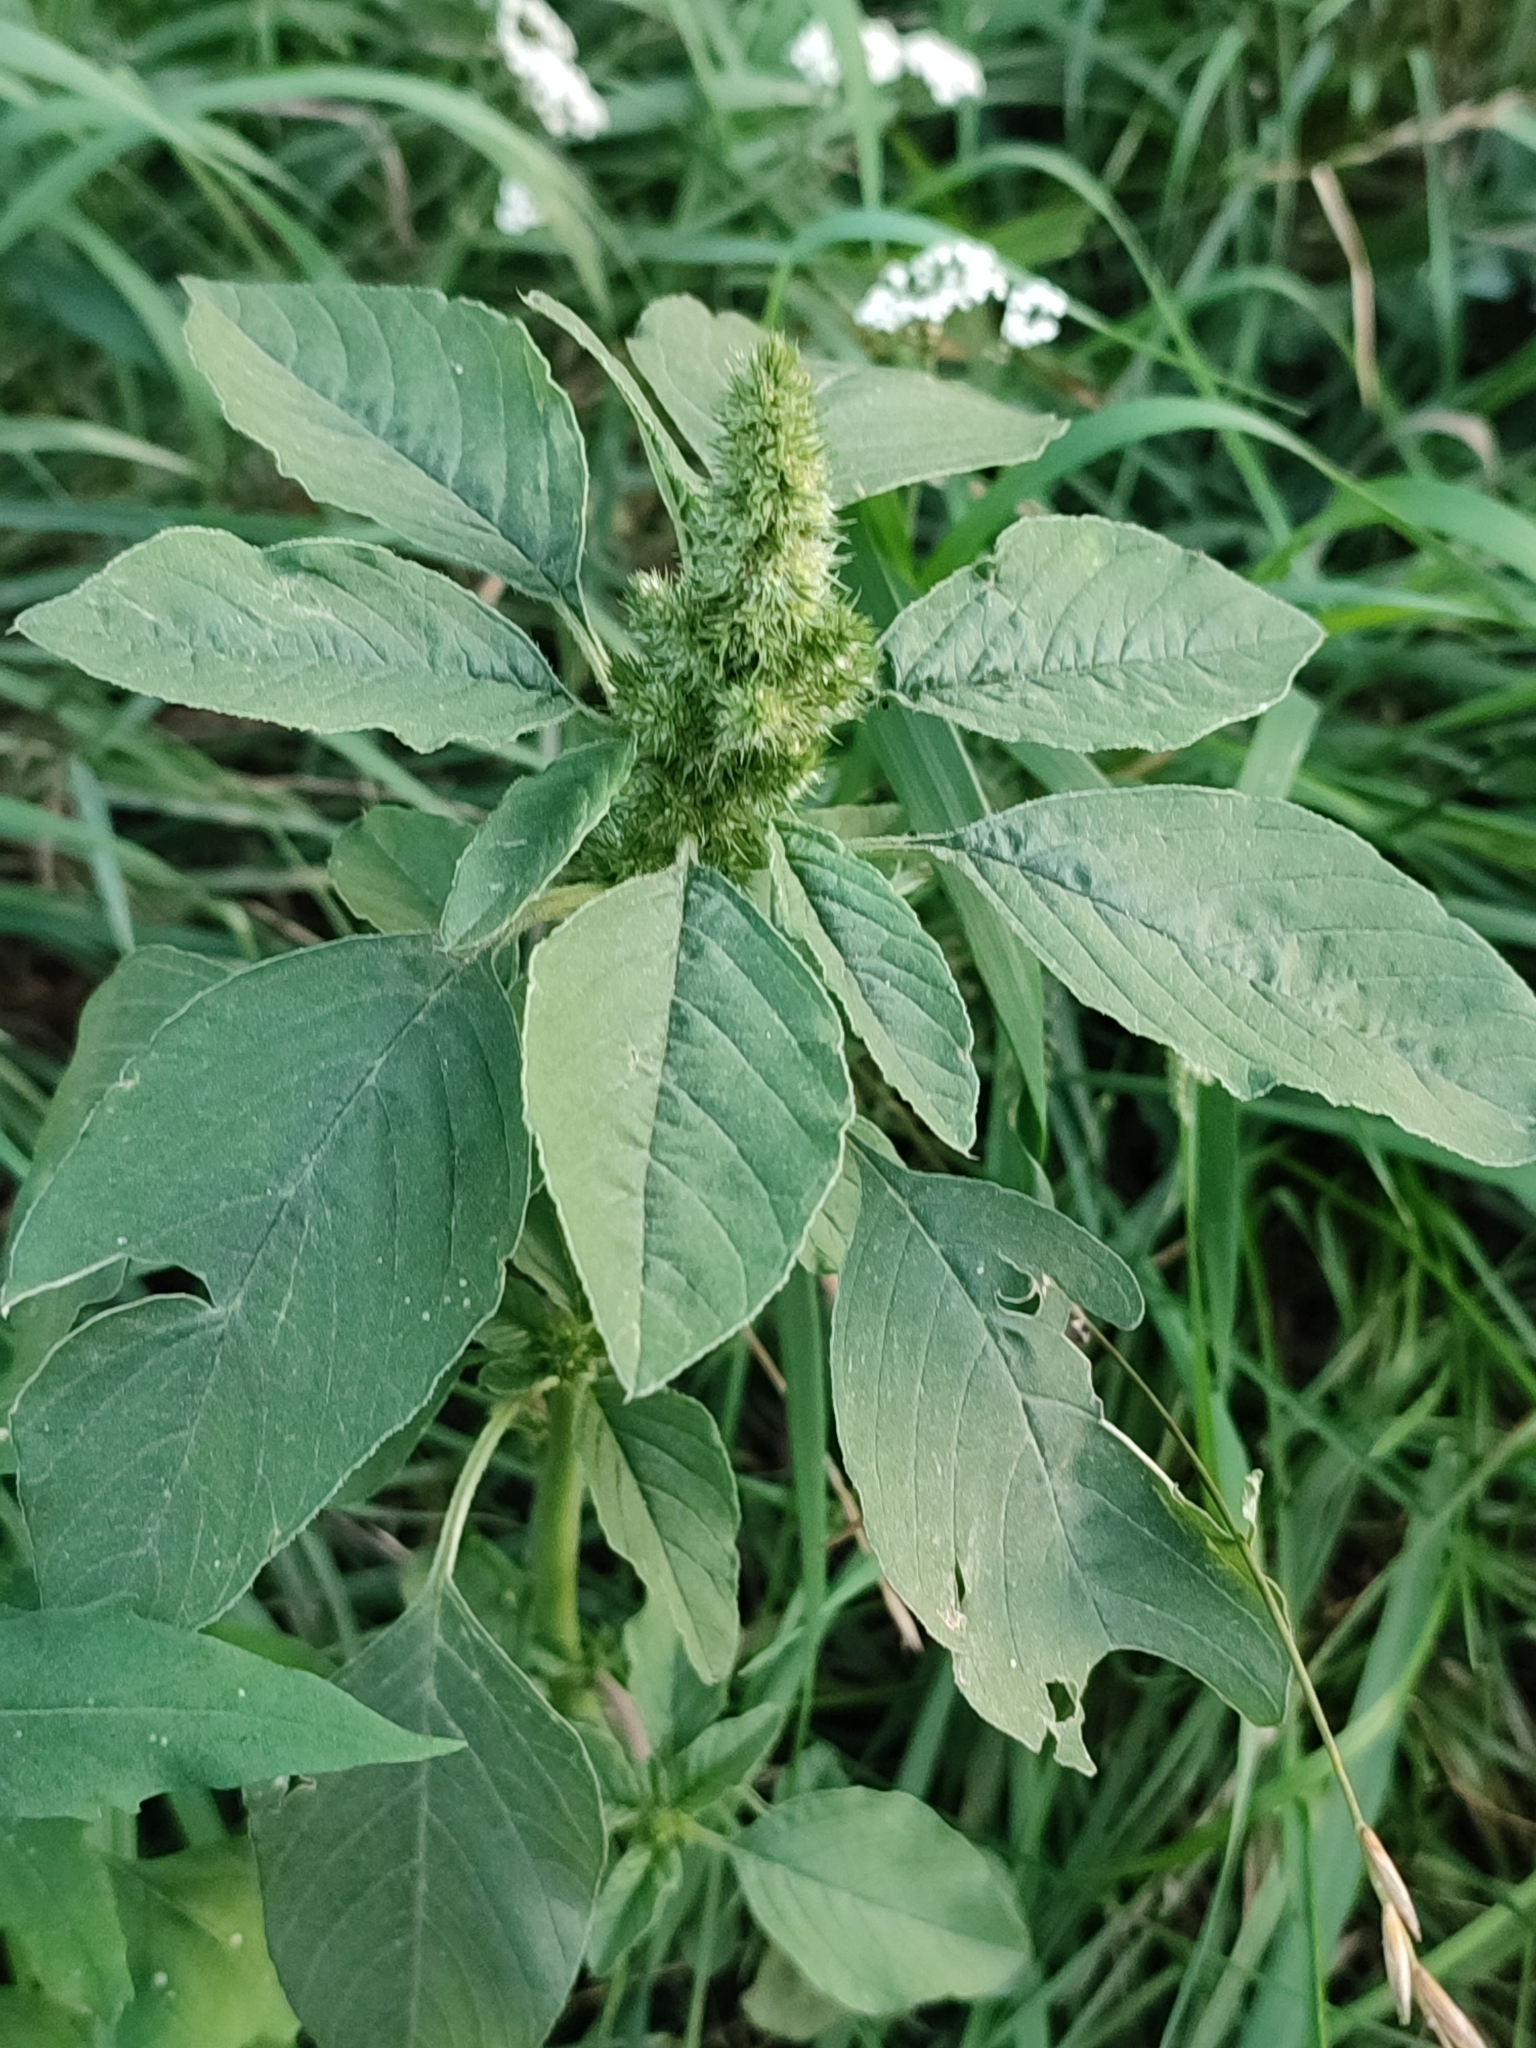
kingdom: Plantae
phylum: Tracheophyta
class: Magnoliopsida
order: Caryophyllales
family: Amaranthaceae
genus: Amaranthus
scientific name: Amaranthus retroflexus
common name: Redroot amaranth
